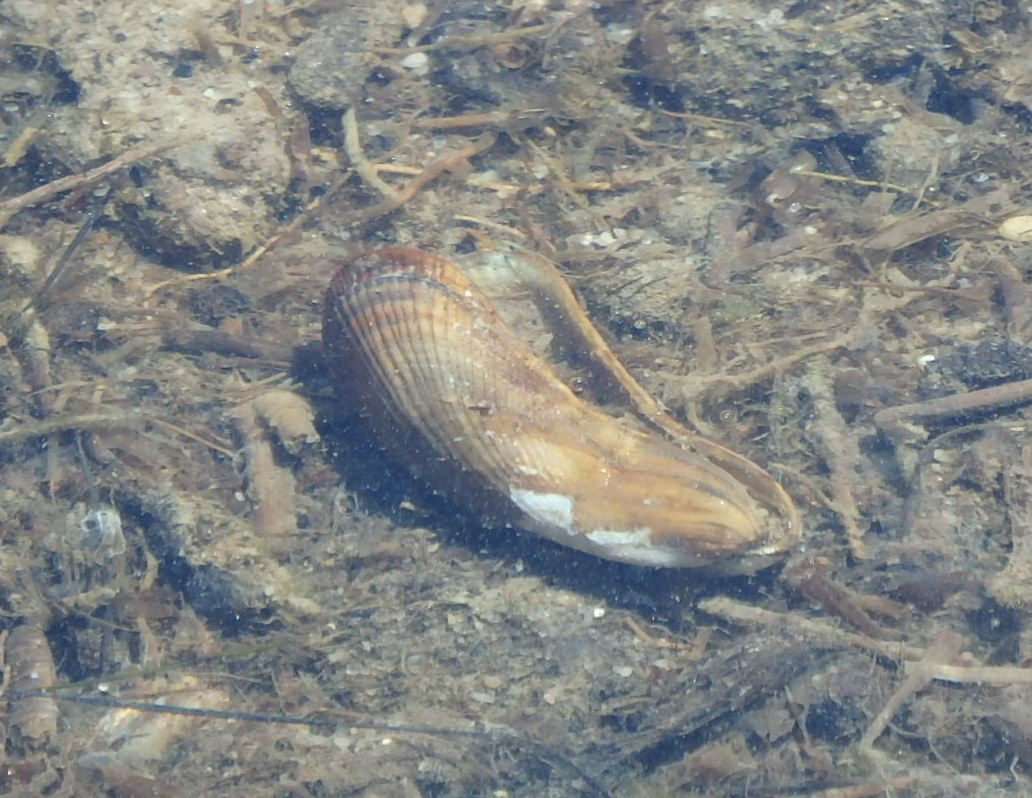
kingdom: Animalia
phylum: Mollusca
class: Bivalvia
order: Mytilida
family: Mytilidae
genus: Geukensia
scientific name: Geukensia demissa
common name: Ribbed mussel
